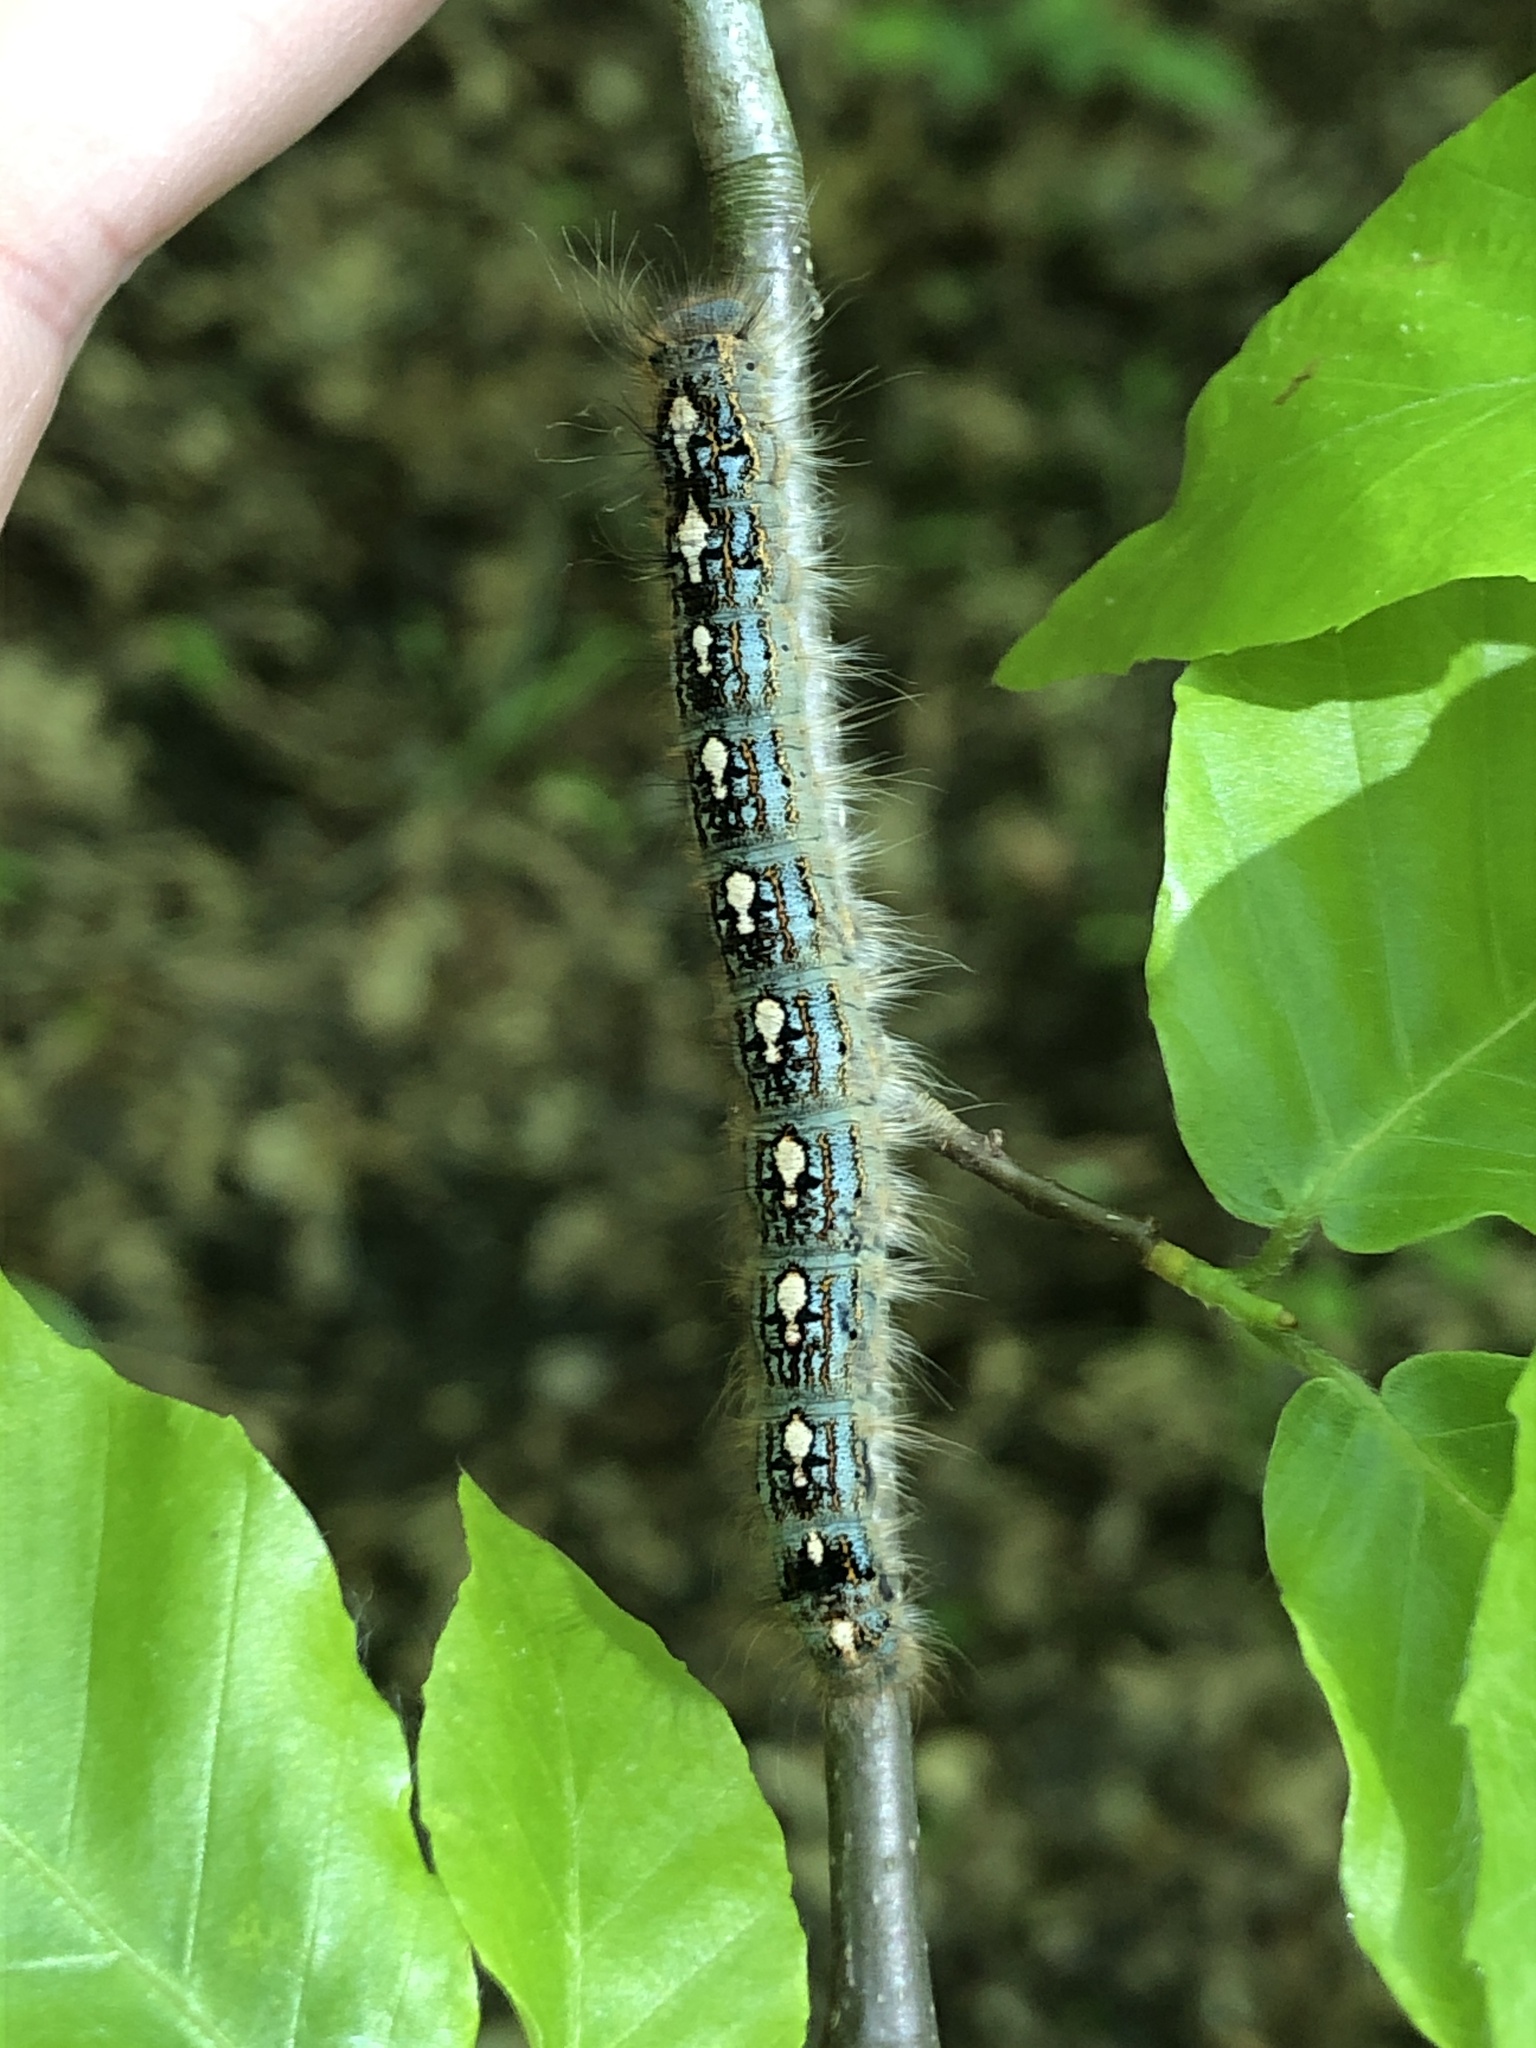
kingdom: Animalia
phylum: Arthropoda
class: Insecta
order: Lepidoptera
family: Lasiocampidae
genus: Malacosoma
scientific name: Malacosoma disstria
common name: Forest tent caterpillar
